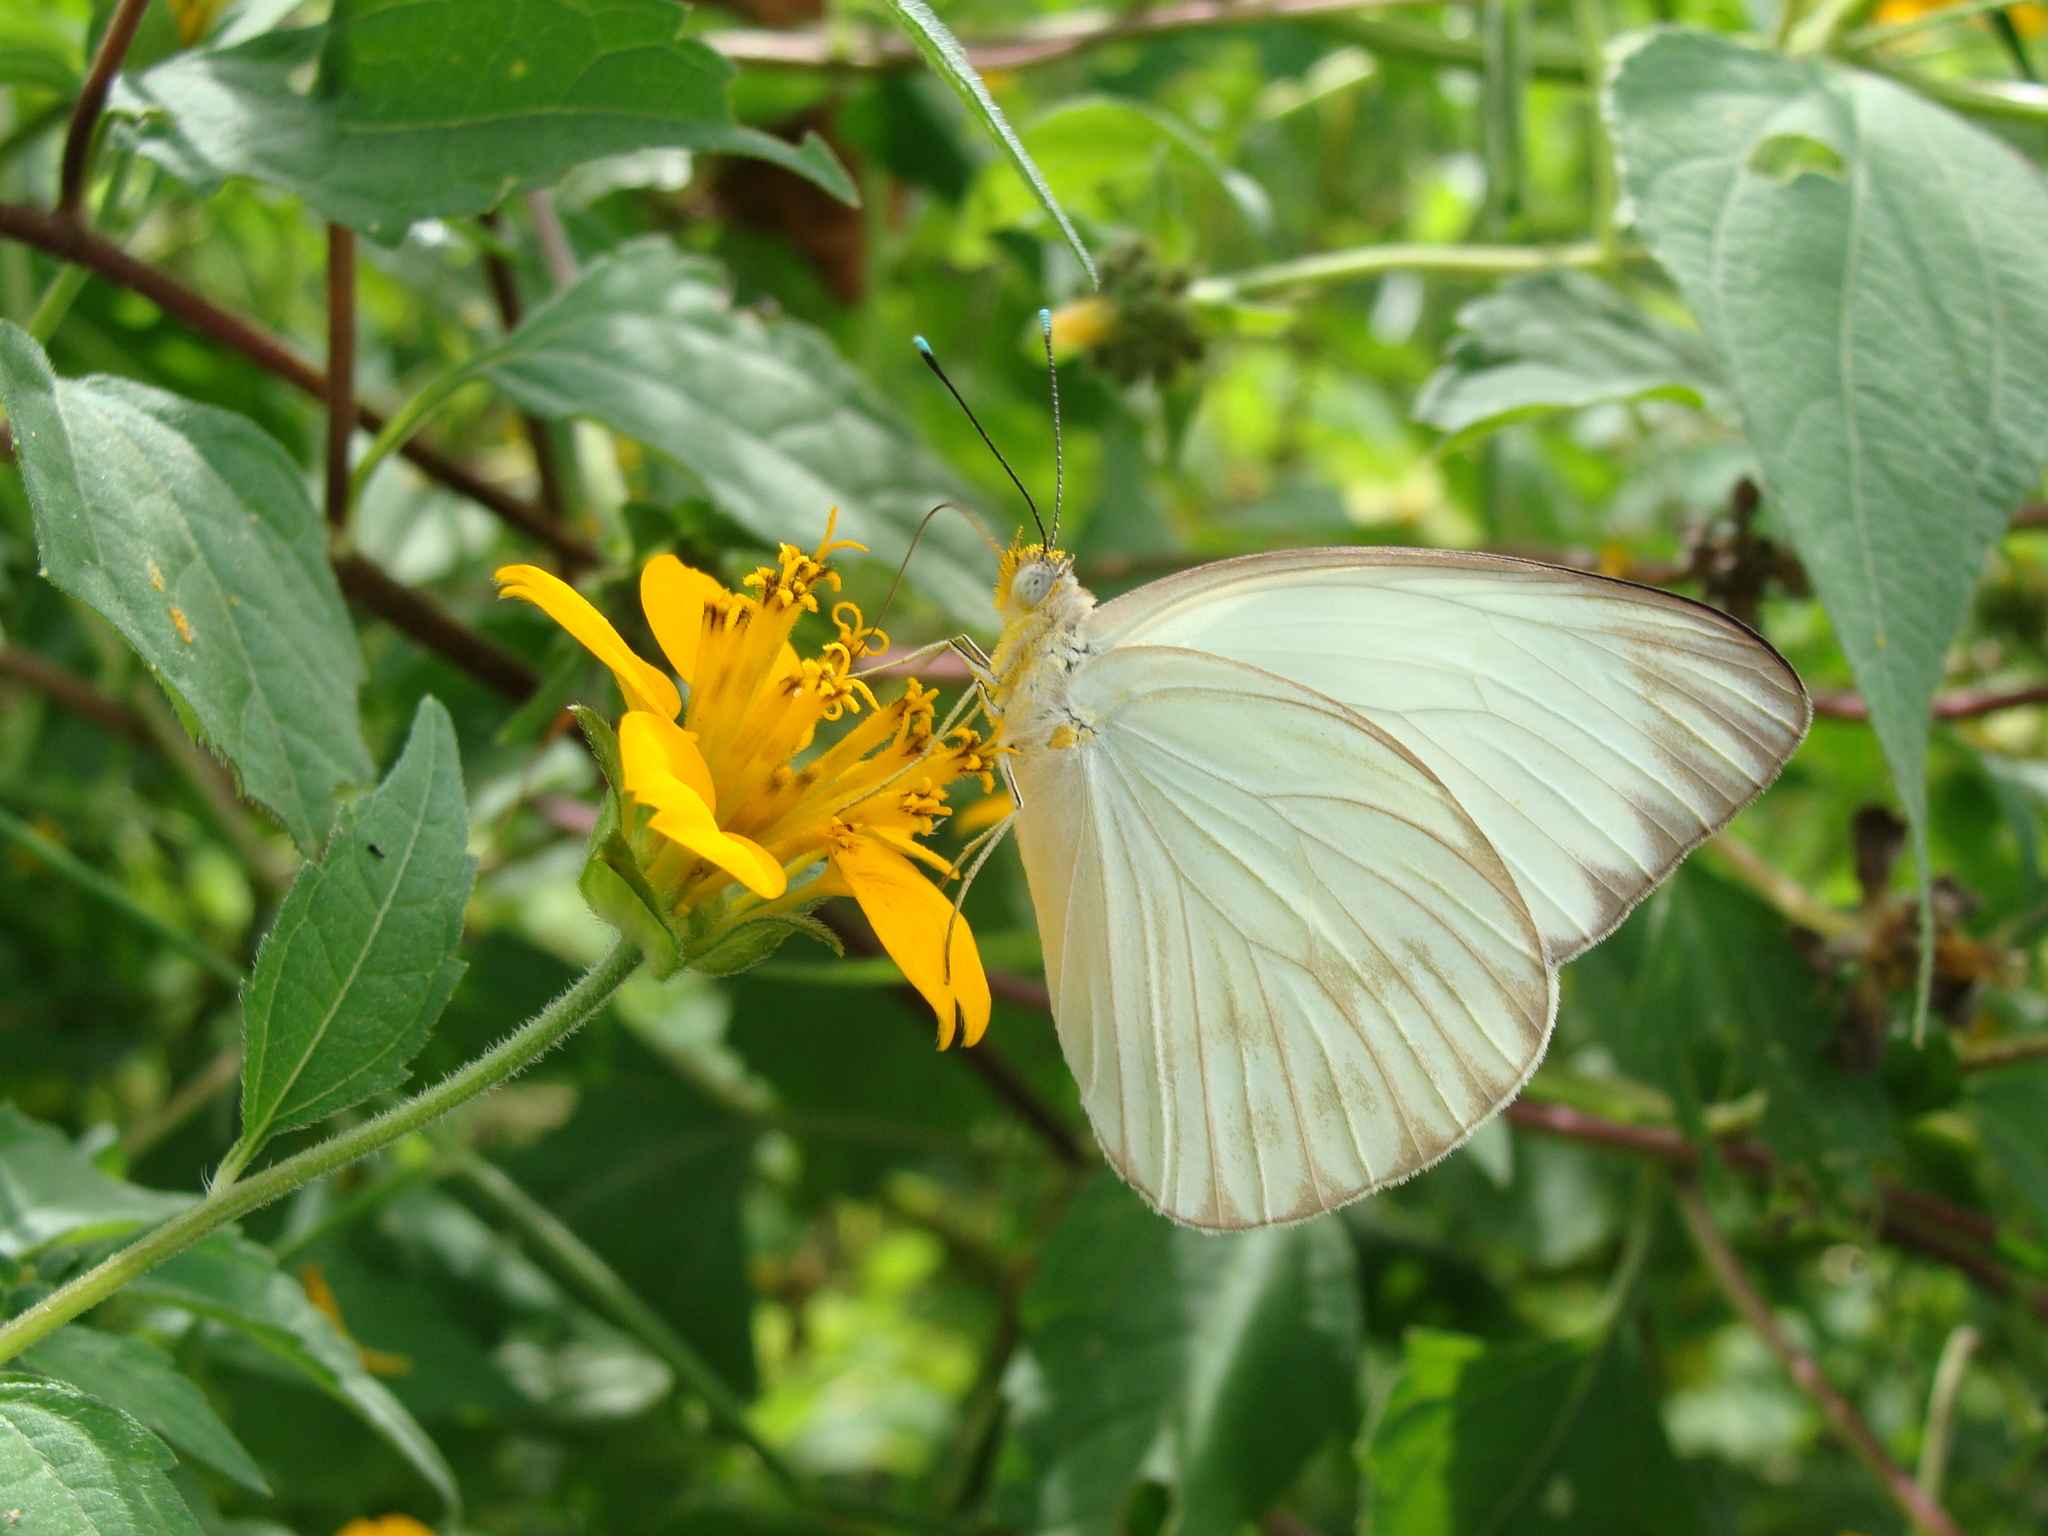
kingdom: Animalia
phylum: Arthropoda
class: Insecta
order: Lepidoptera
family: Pieridae
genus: Ascia
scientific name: Ascia monuste
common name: Great southern white
